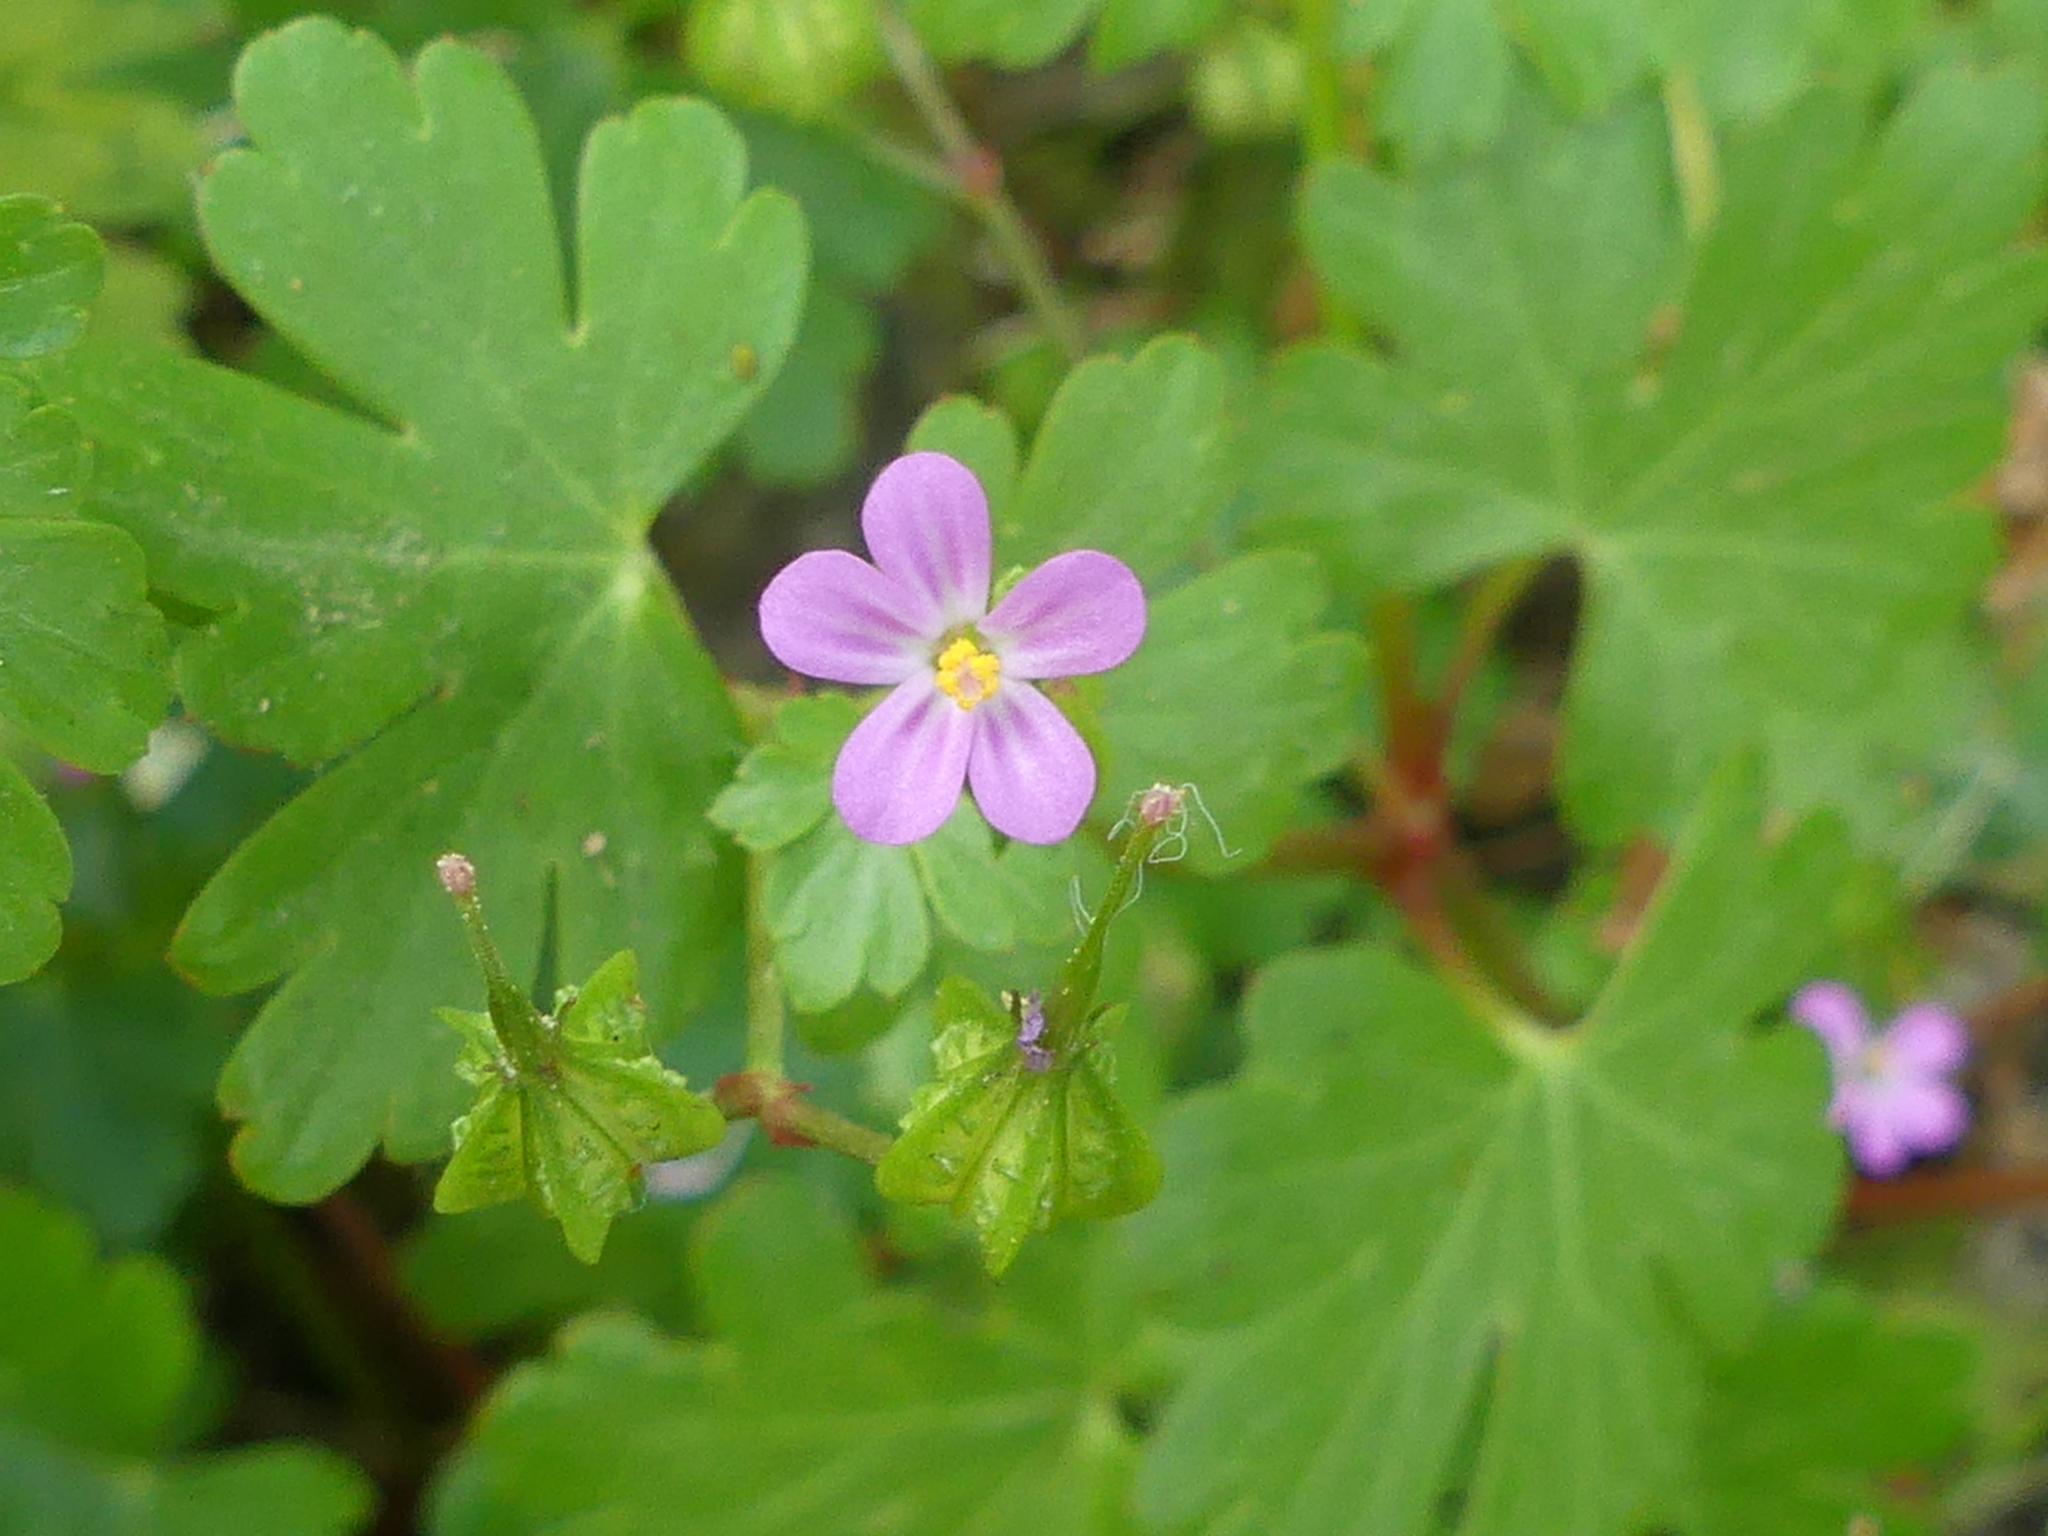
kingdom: Plantae
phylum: Tracheophyta
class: Magnoliopsida
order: Geraniales
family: Geraniaceae
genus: Geranium
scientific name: Geranium lucidum
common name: Shining crane's-bill
